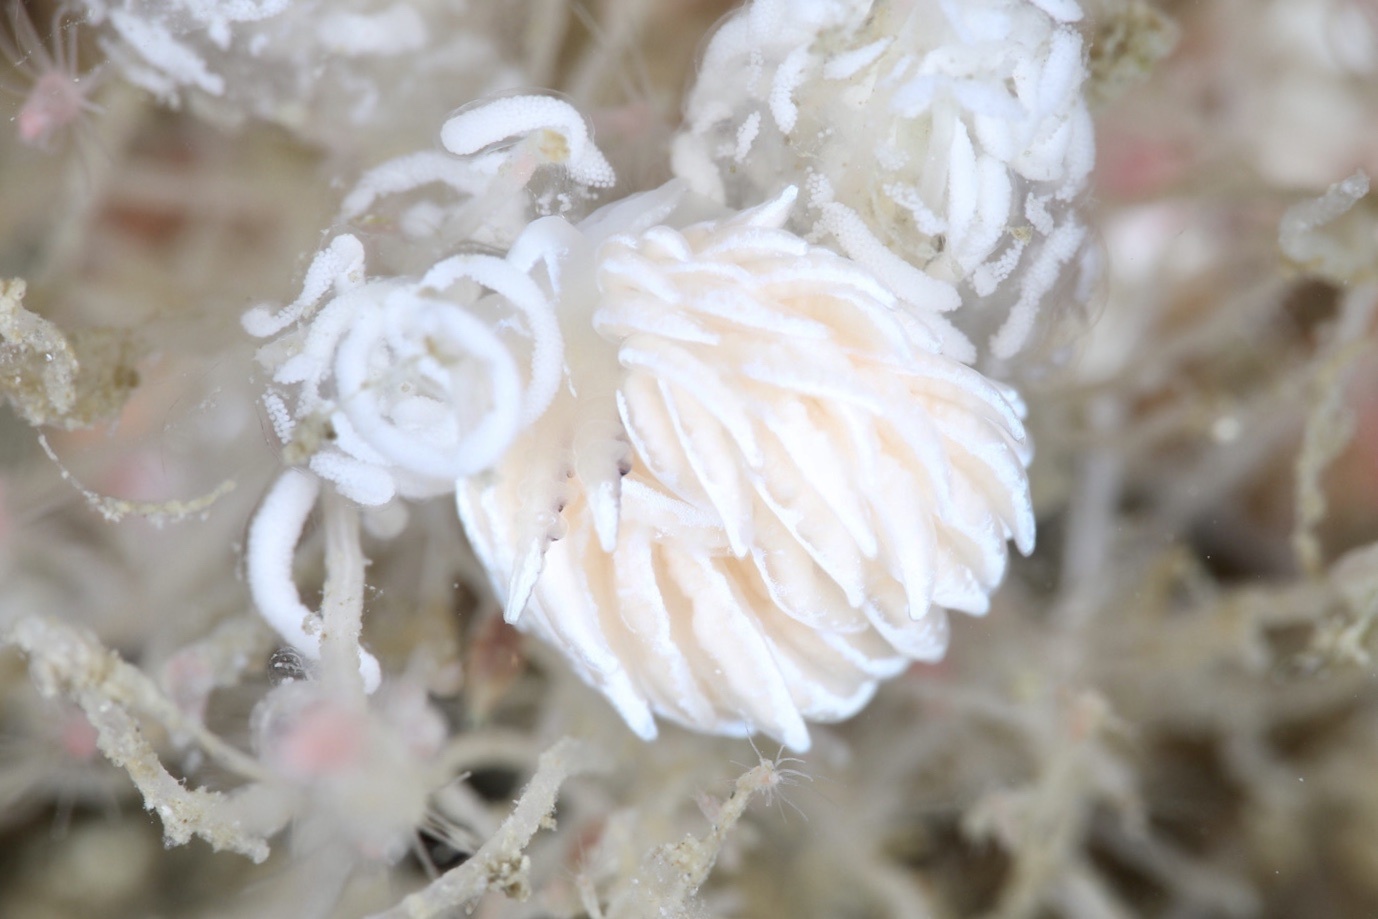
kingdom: Animalia
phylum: Mollusca
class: Gastropoda
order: Nudibranchia
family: Facelinidae
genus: Favorinus
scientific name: Favorinus blianus
